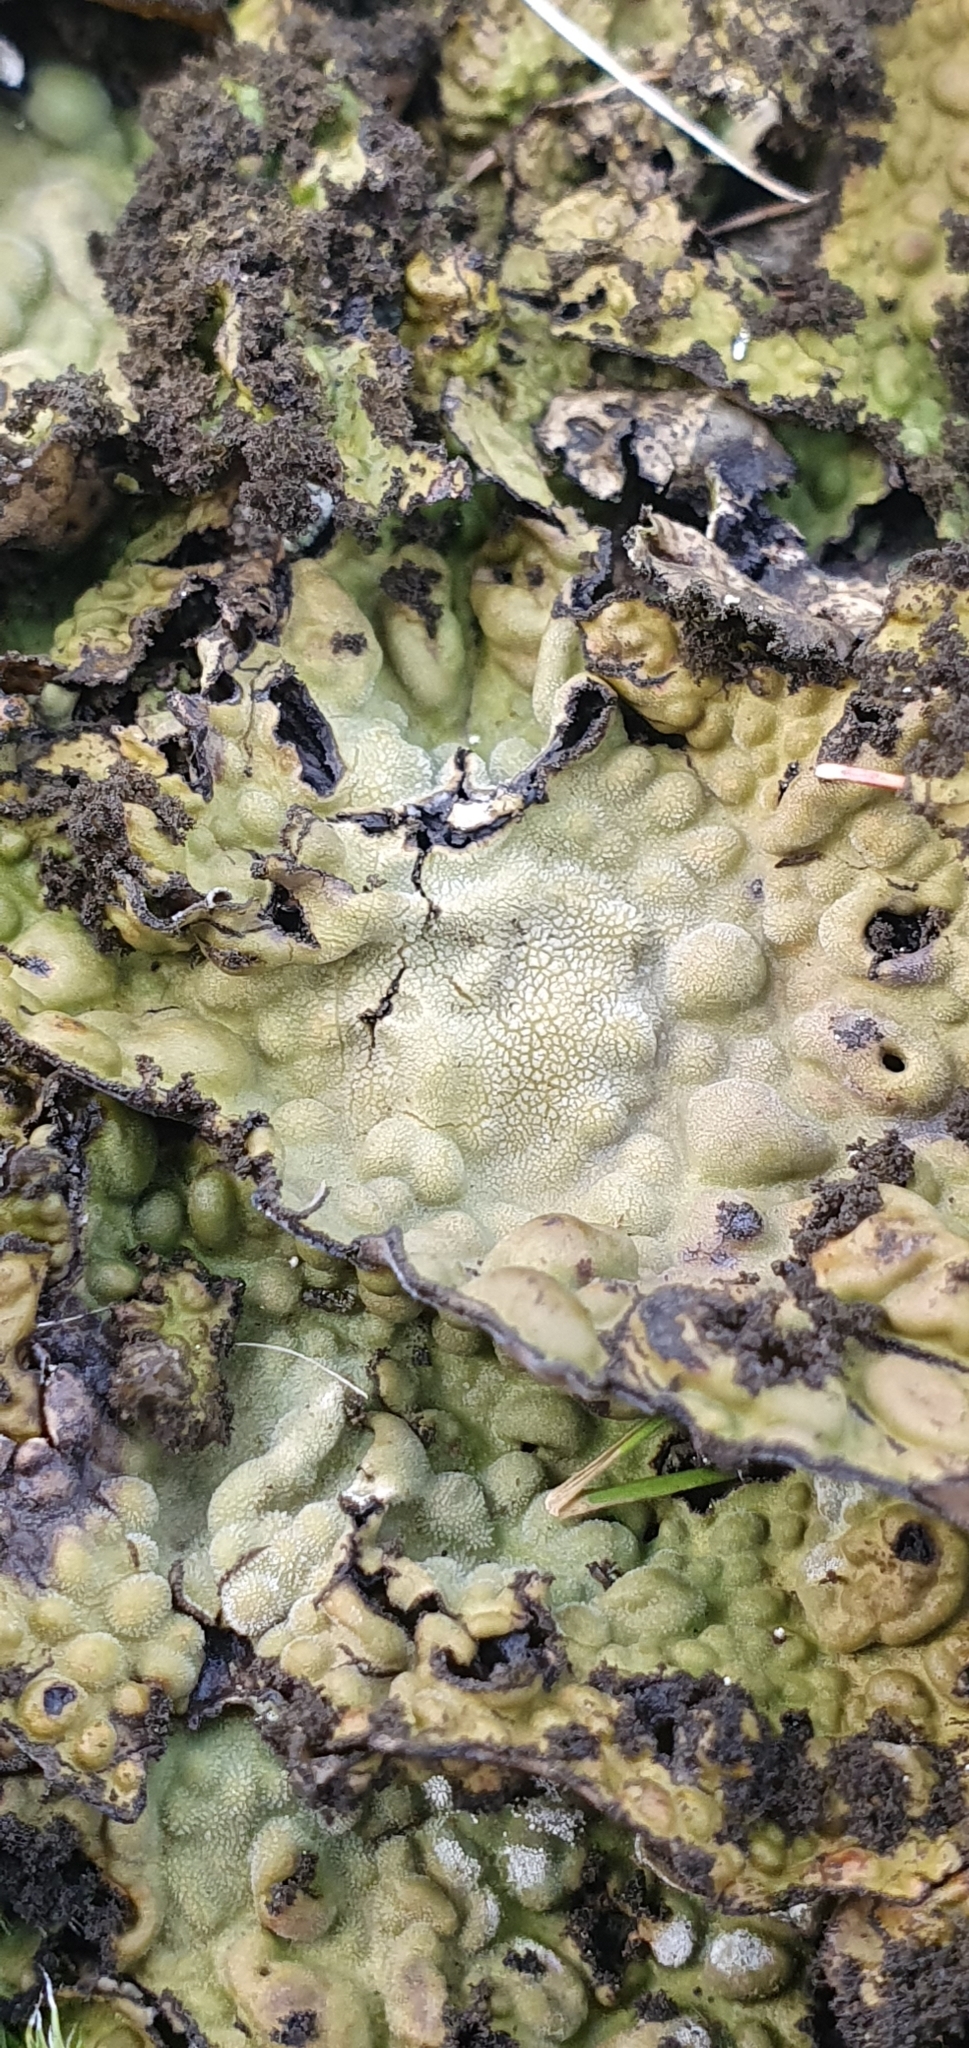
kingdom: Fungi
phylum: Ascomycota
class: Lecanoromycetes
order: Umbilicariales
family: Umbilicariaceae
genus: Lasallia
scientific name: Lasallia pustulata
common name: Blistered toadskin lichen
